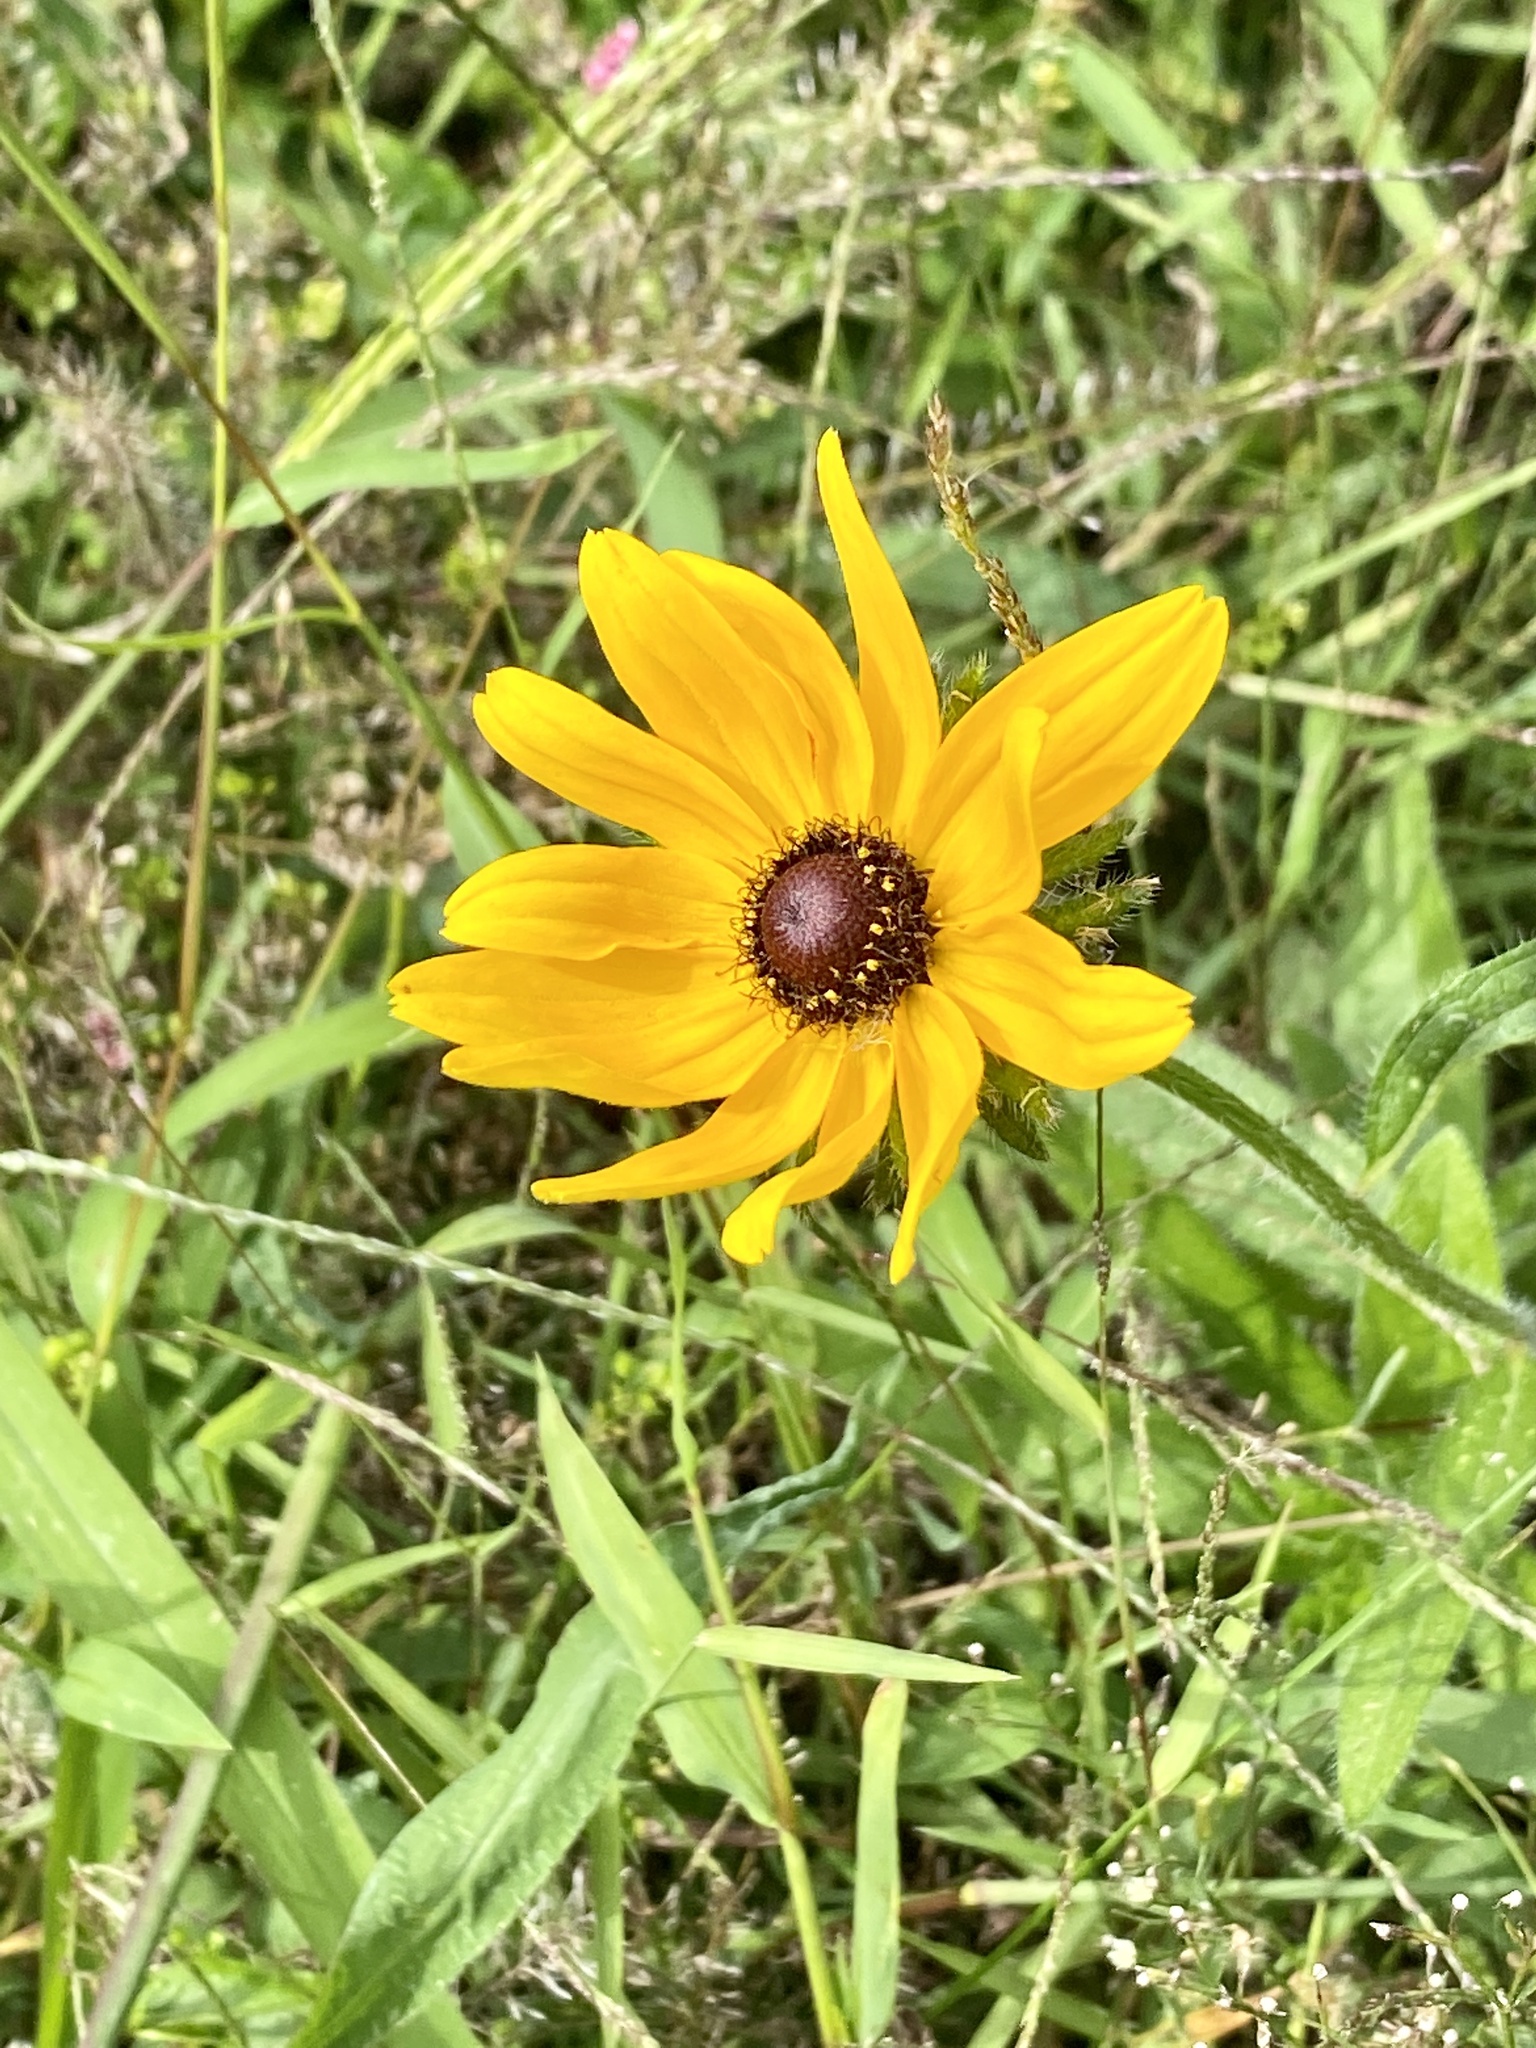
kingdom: Plantae
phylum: Tracheophyta
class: Magnoliopsida
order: Asterales
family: Asteraceae
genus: Rudbeckia
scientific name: Rudbeckia hirta
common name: Black-eyed-susan
